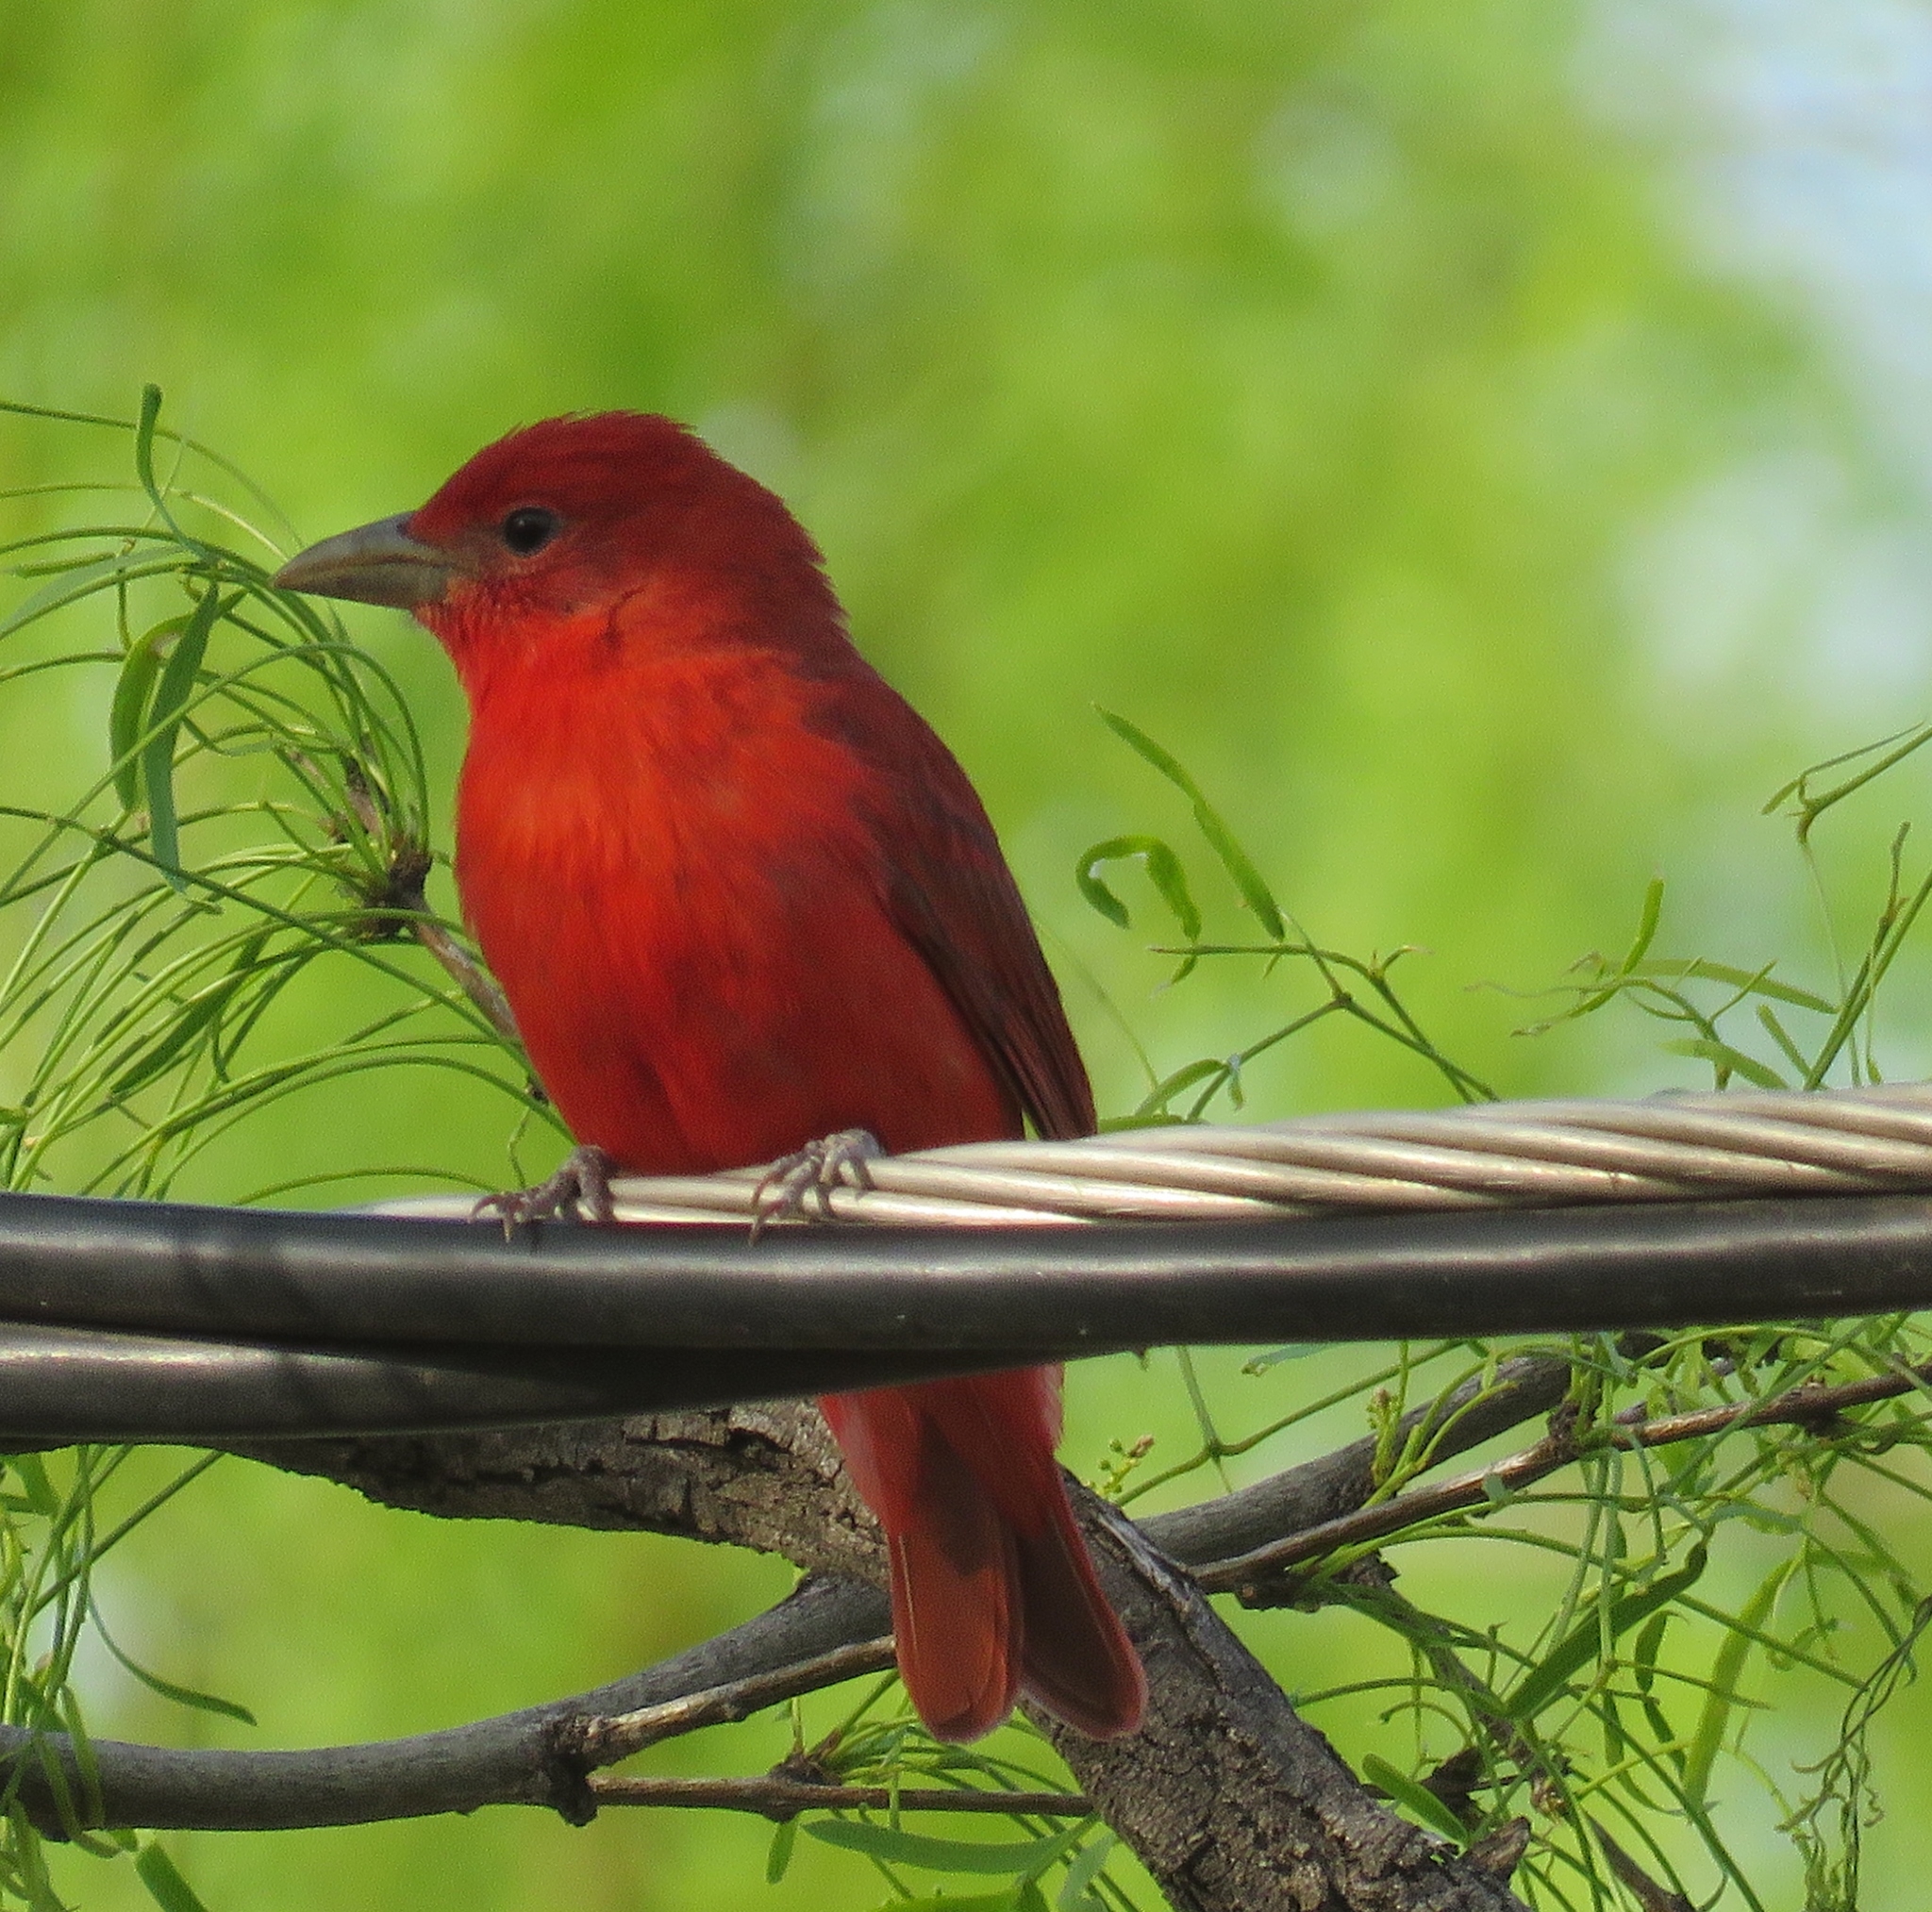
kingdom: Animalia
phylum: Chordata
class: Aves
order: Passeriformes
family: Cardinalidae
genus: Piranga
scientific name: Piranga rubra
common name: Summer tanager
